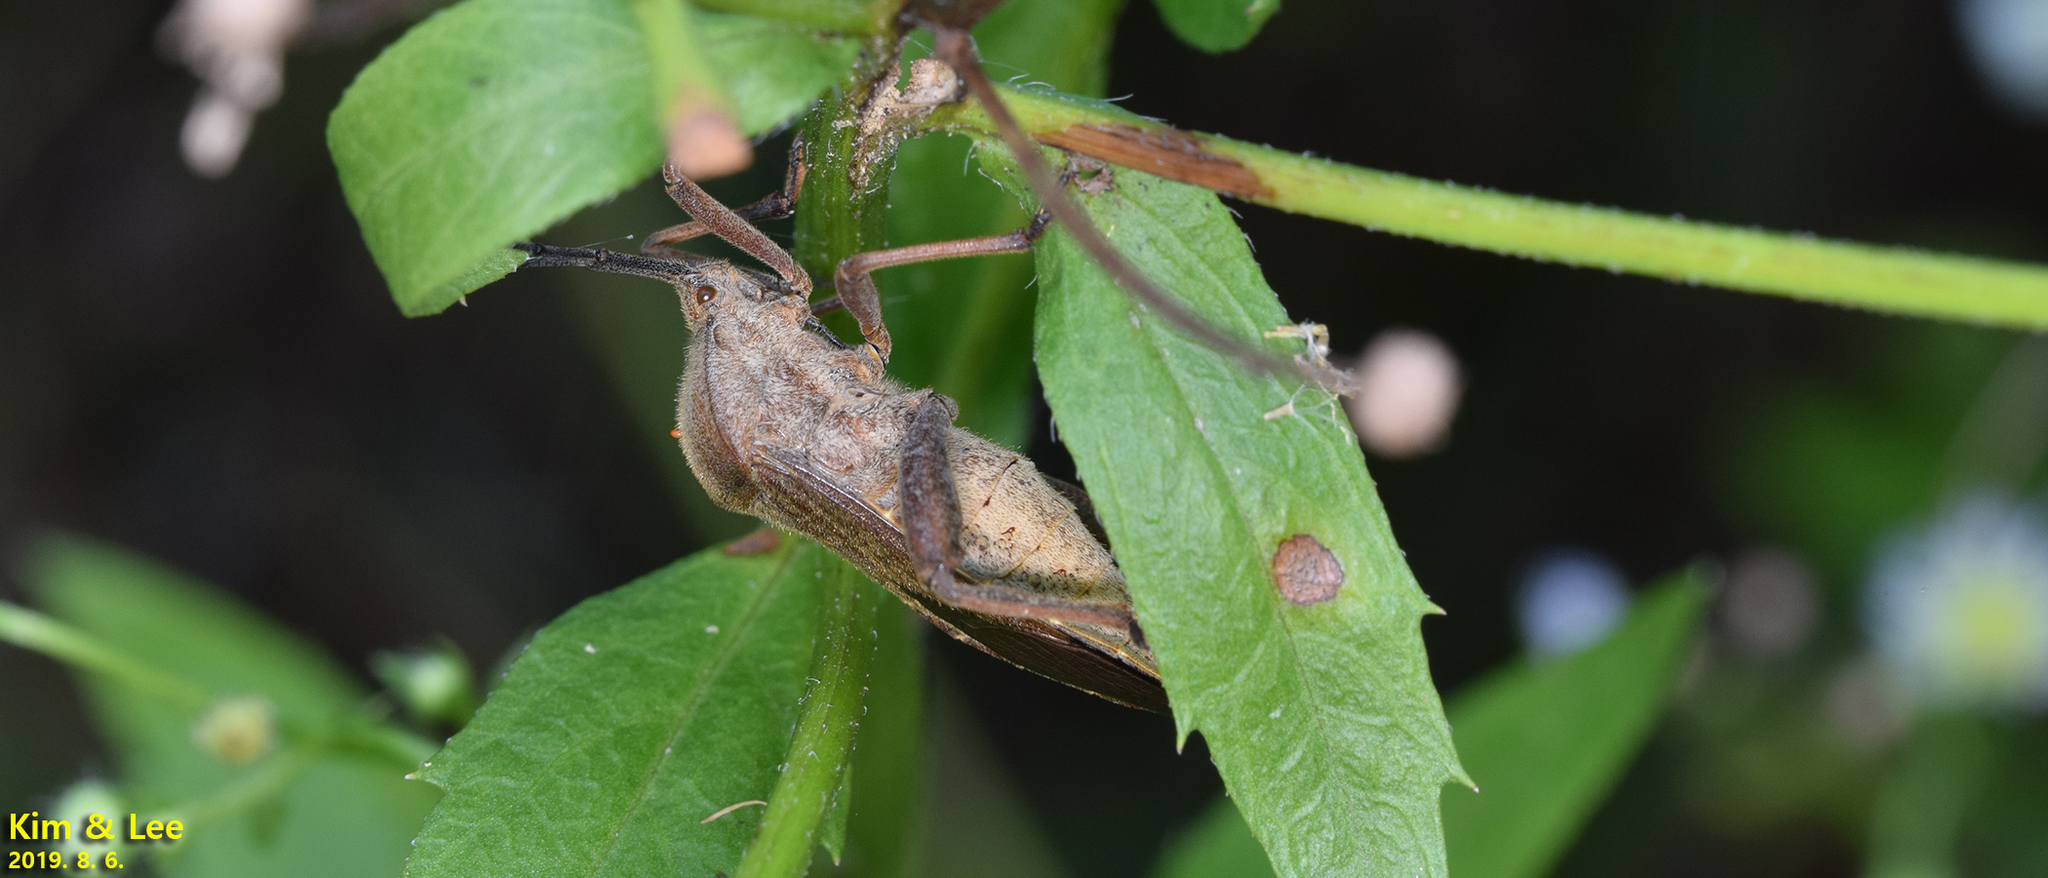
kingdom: Animalia
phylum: Arthropoda
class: Insecta
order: Hemiptera
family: Coreidae
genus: Anoplocnemis
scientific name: Anoplocnemis dallasi
